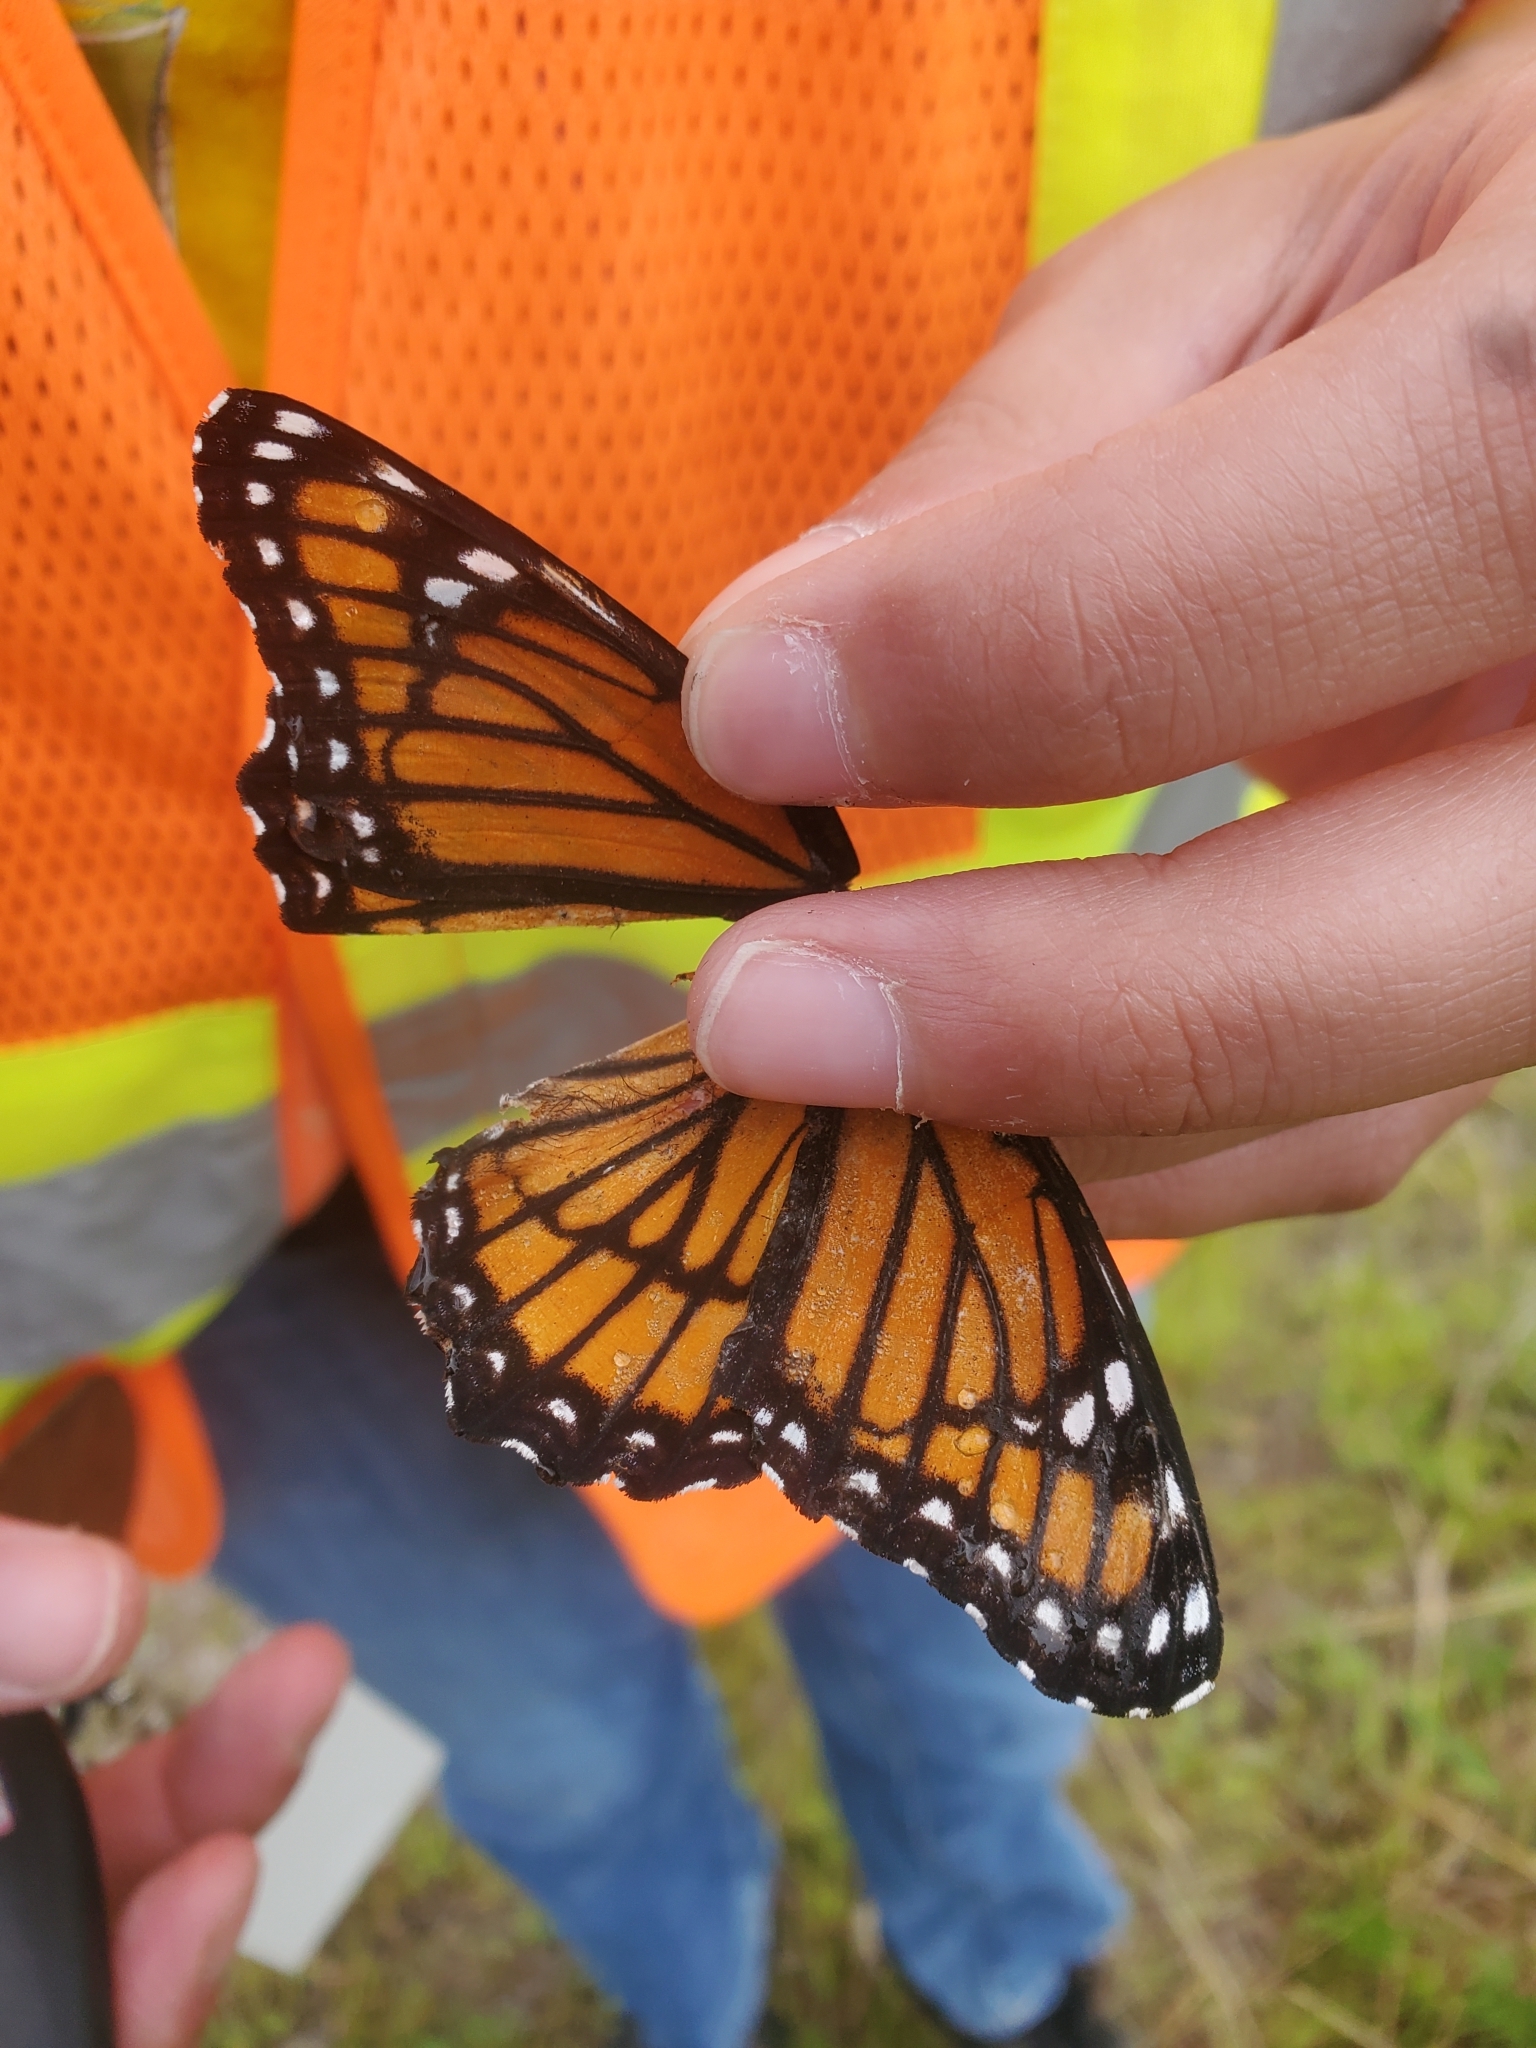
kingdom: Animalia
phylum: Arthropoda
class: Insecta
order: Lepidoptera
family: Nymphalidae
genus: Limenitis
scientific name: Limenitis archippus
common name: Viceroy
